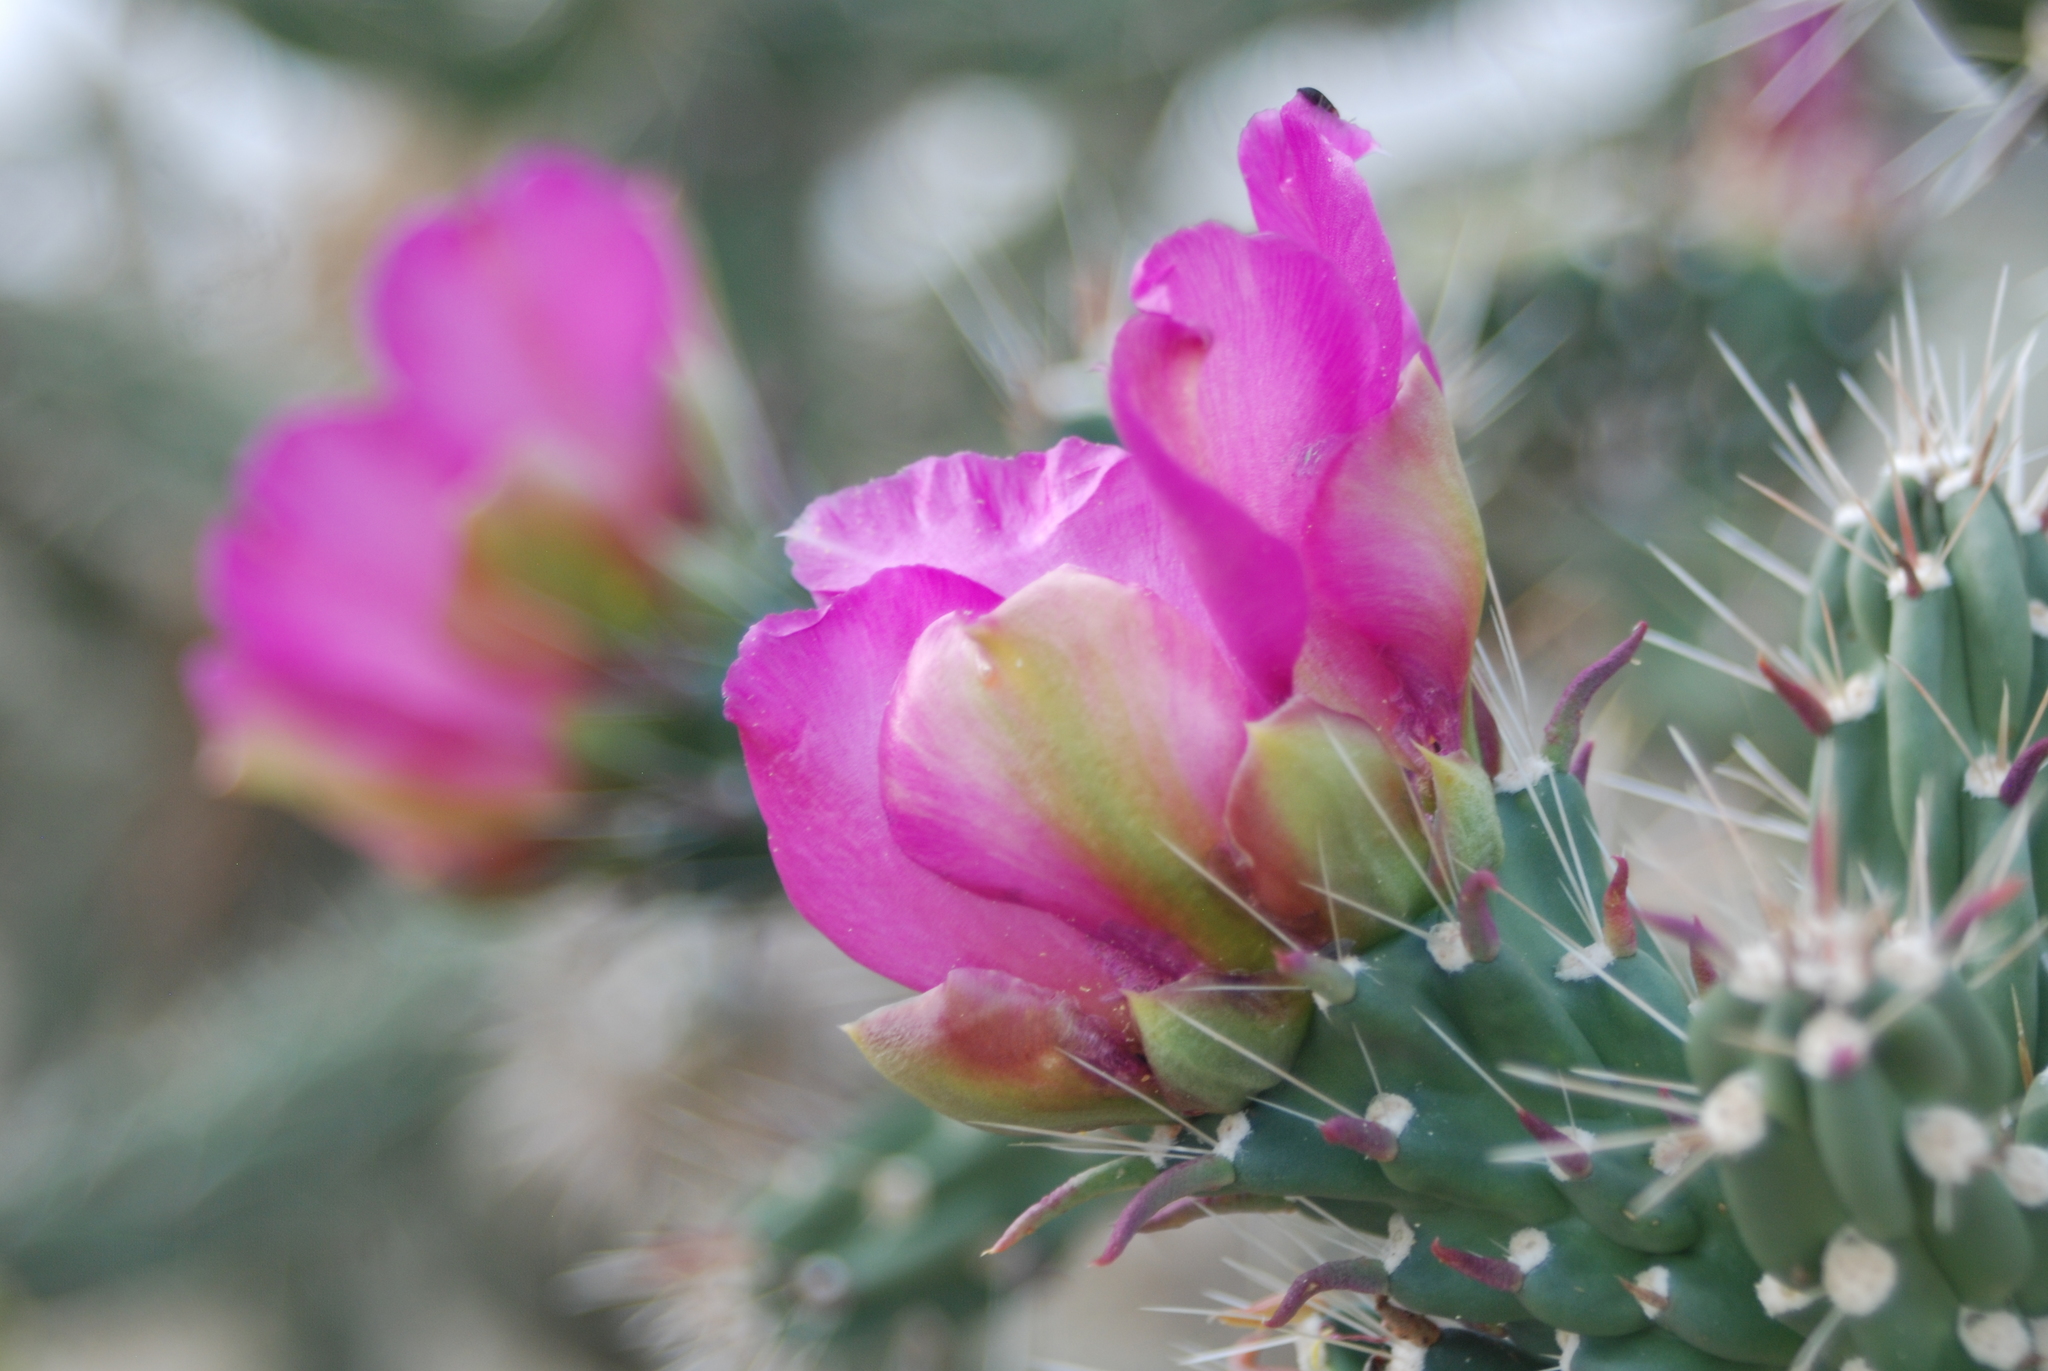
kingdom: Plantae
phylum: Tracheophyta
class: Magnoliopsida
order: Caryophyllales
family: Cactaceae
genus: Cylindropuntia
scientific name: Cylindropuntia imbricata
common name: Candelabrum cactus
